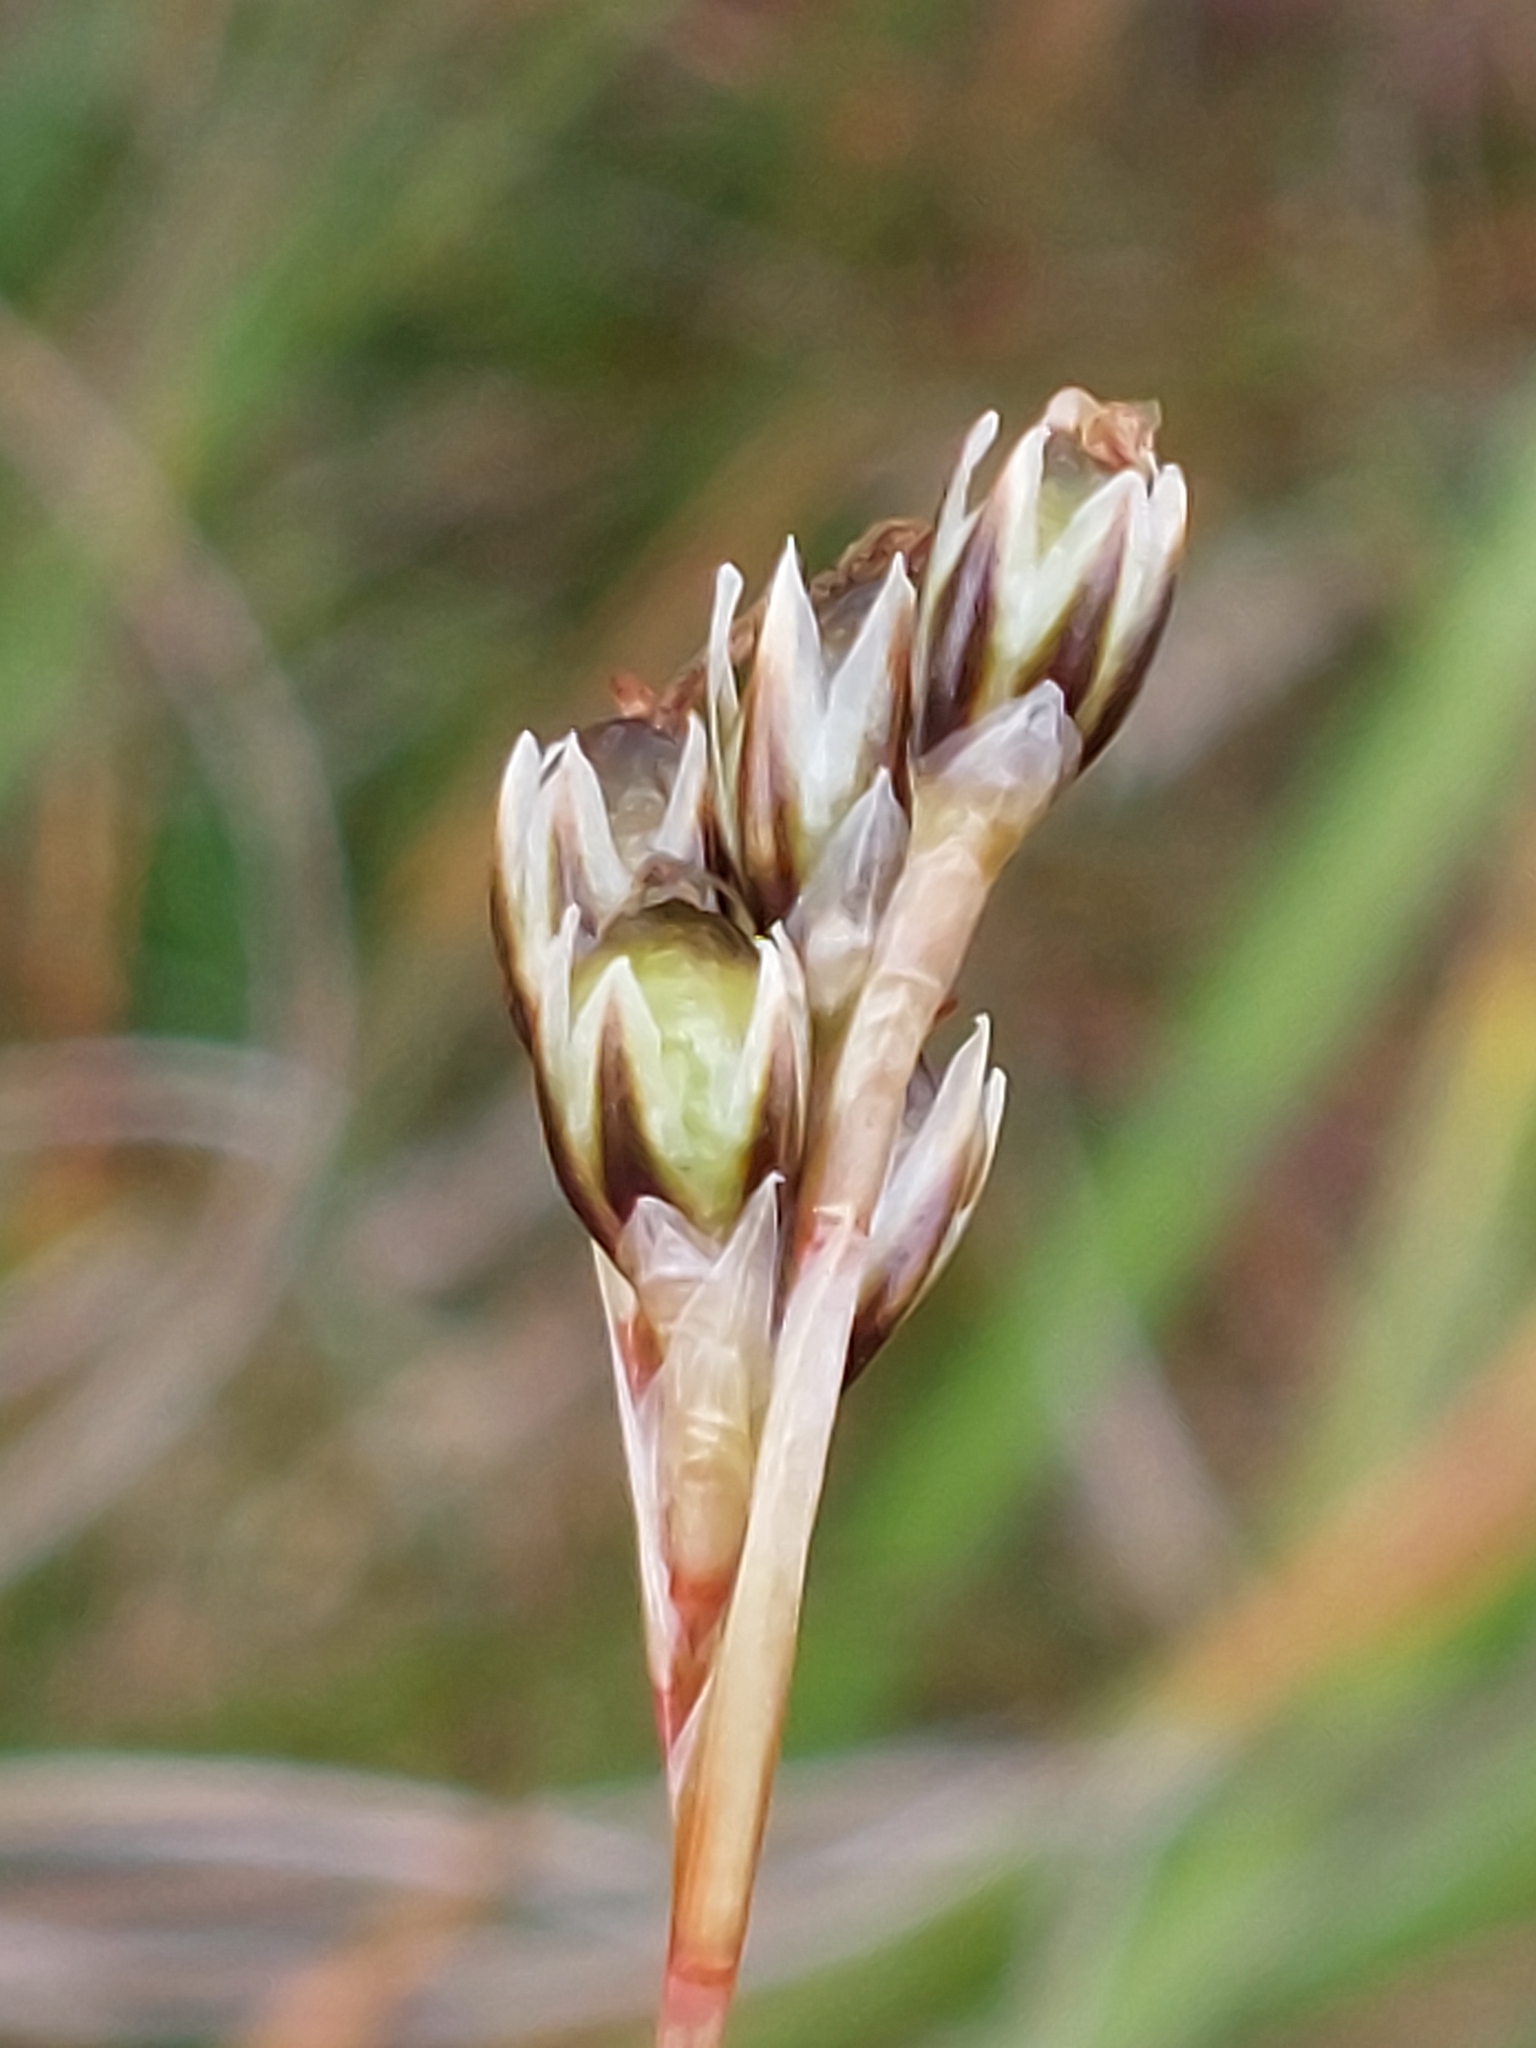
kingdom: Plantae
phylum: Tracheophyta
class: Liliopsida
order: Poales
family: Juncaceae
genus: Juncus
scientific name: Juncus squarrosus
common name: Heath rush
